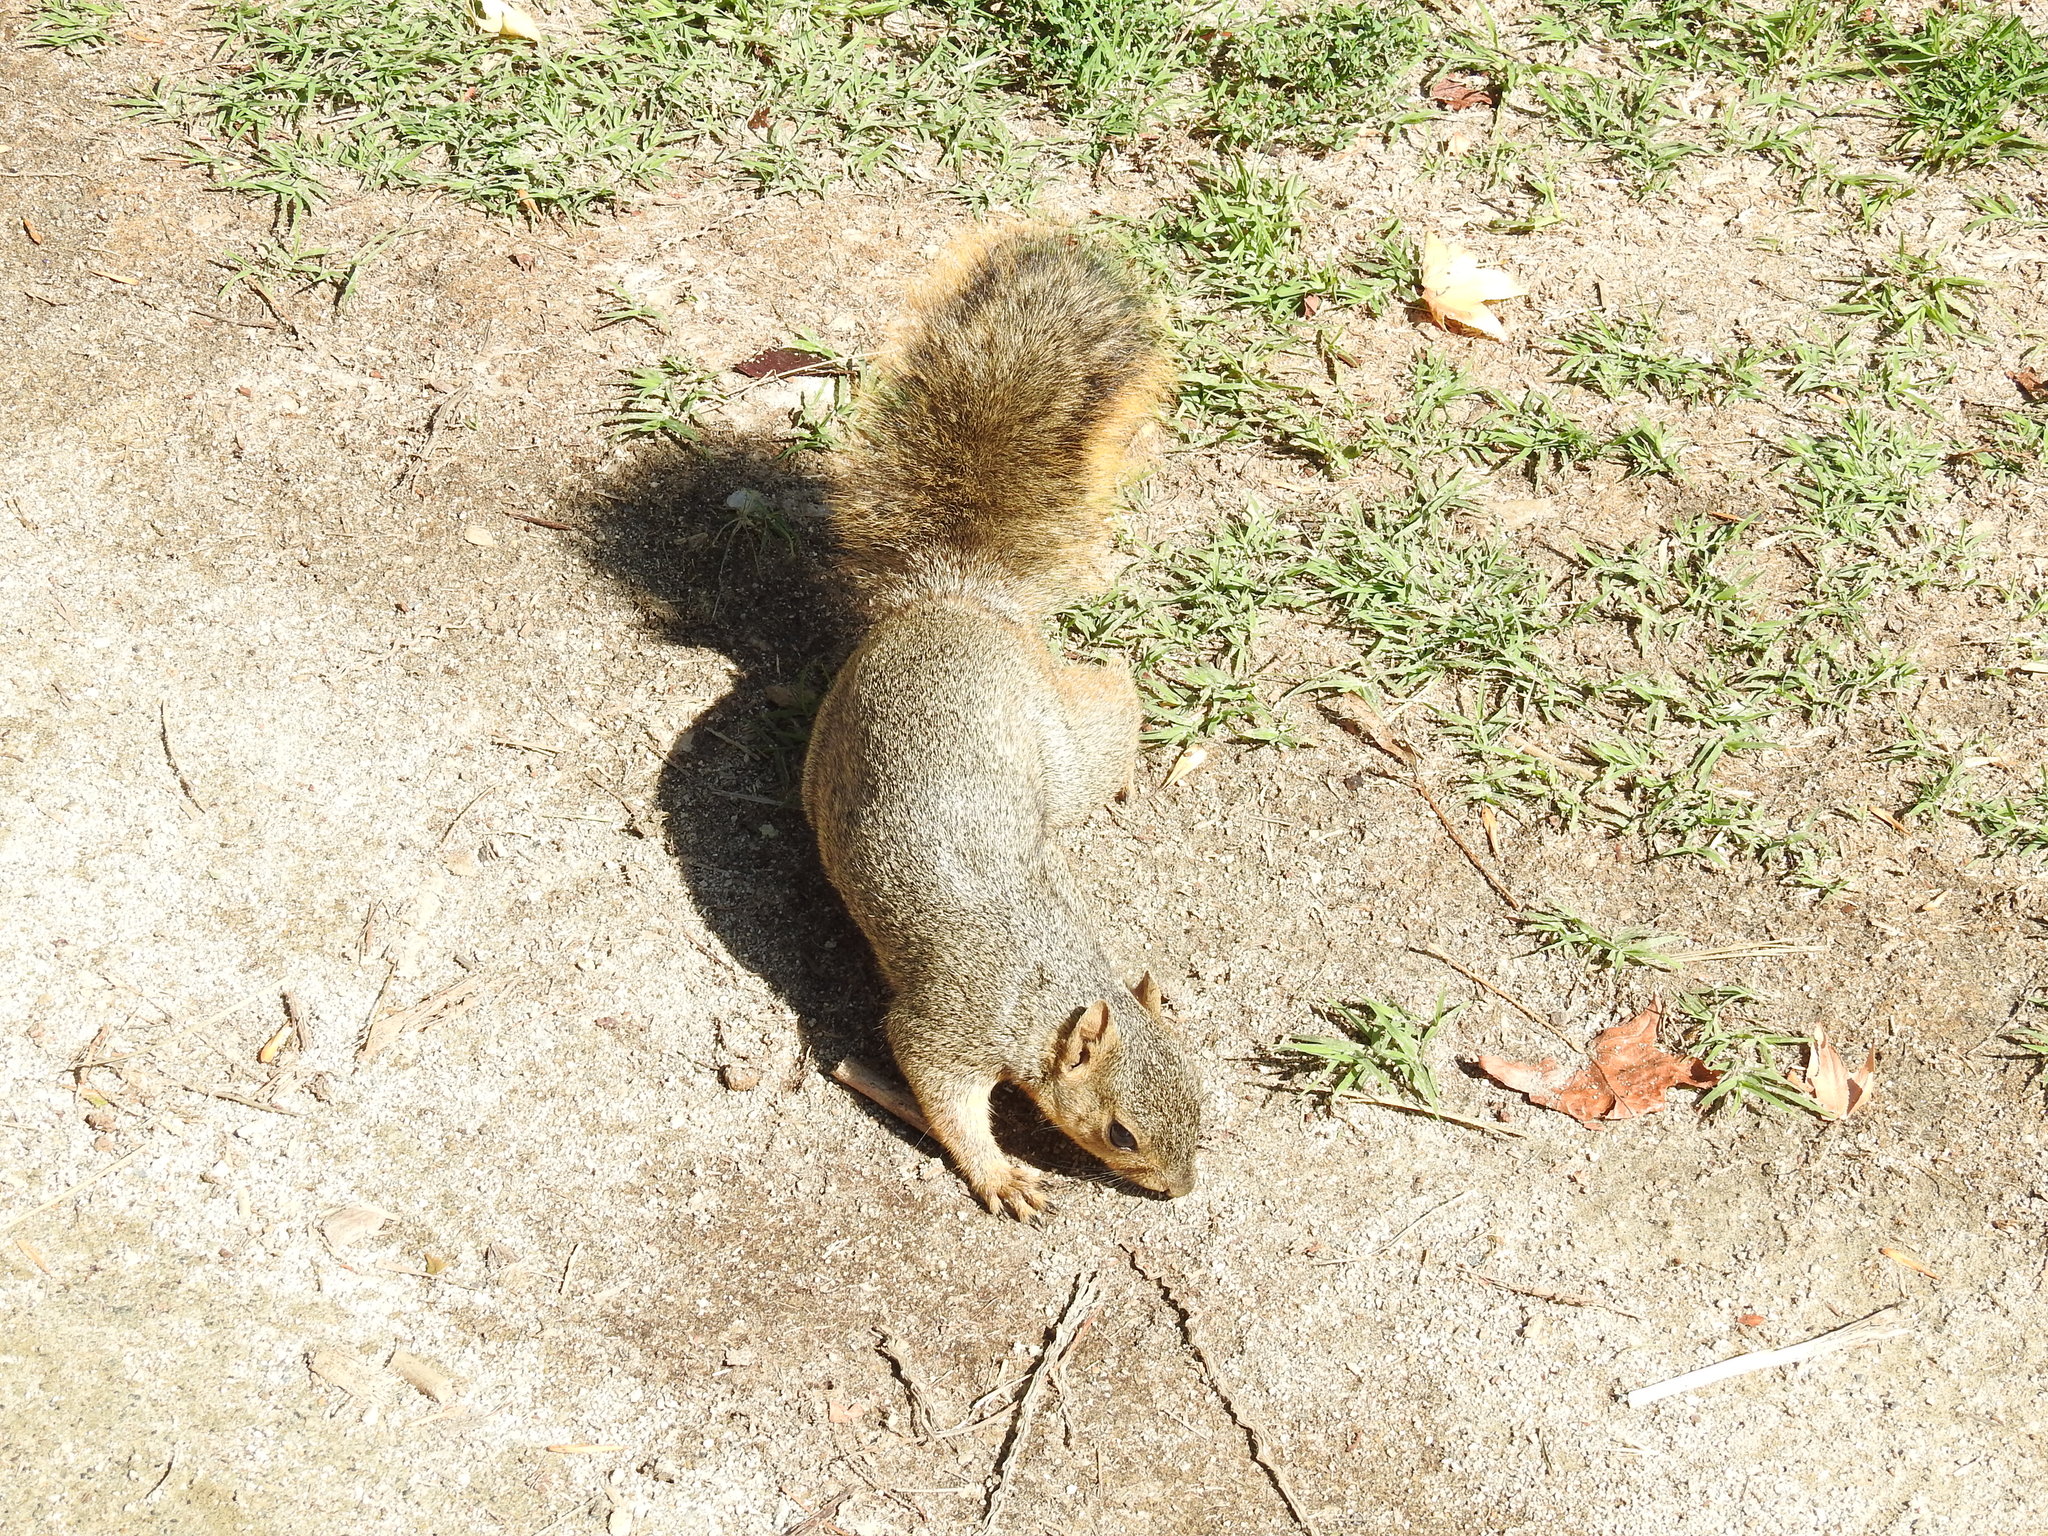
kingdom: Animalia
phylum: Chordata
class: Mammalia
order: Rodentia
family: Sciuridae
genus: Sciurus
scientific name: Sciurus niger
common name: Fox squirrel
